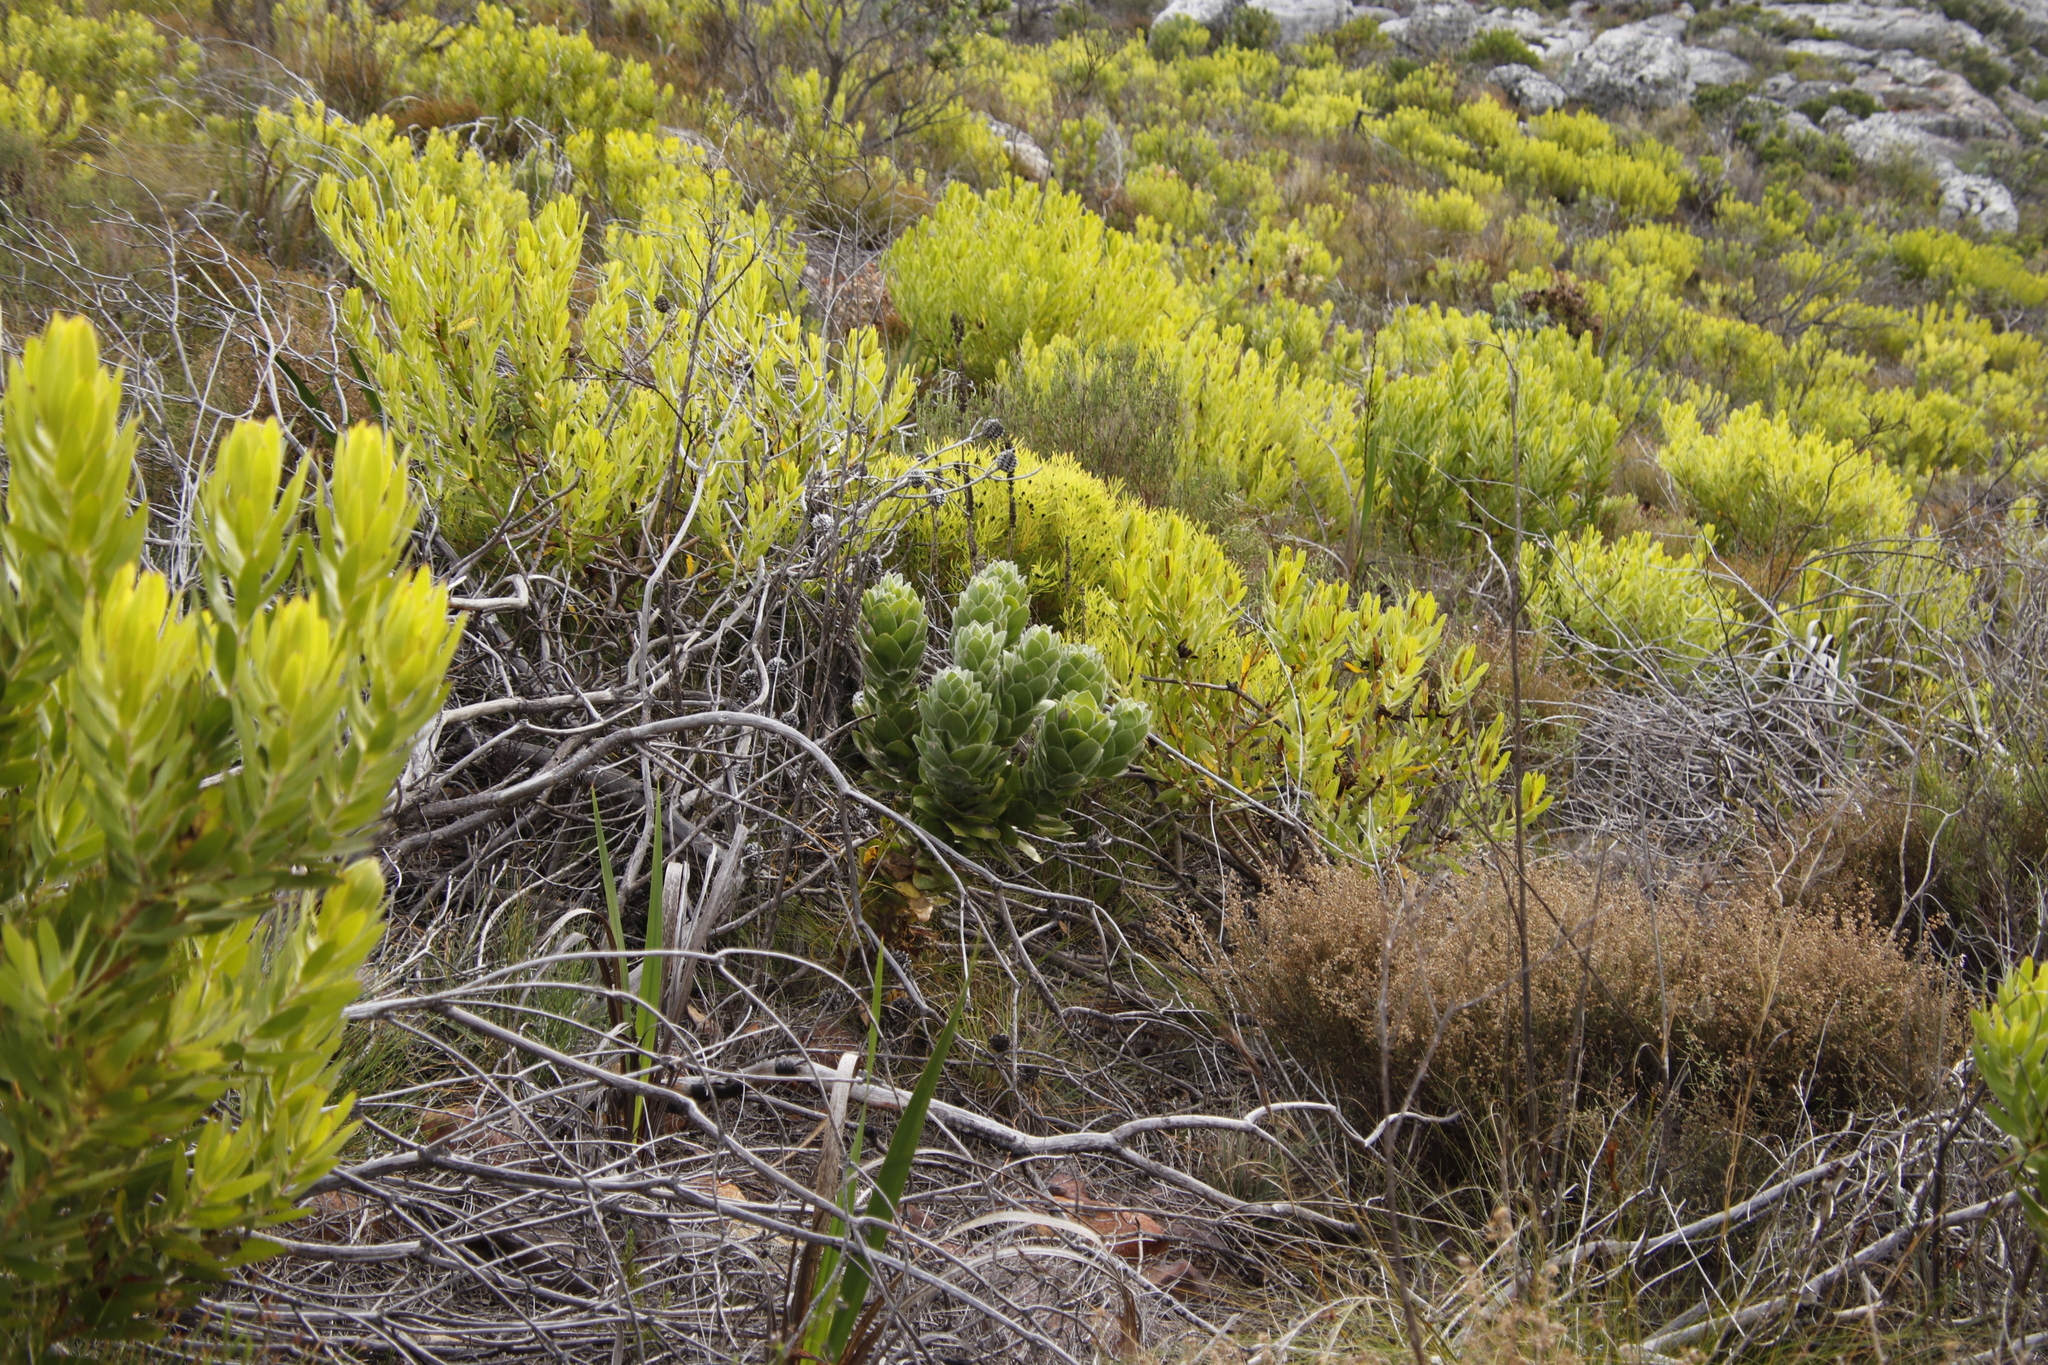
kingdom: Plantae
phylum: Tracheophyta
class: Magnoliopsida
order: Proteales
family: Proteaceae
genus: Leucospermum
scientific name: Leucospermum conocarpodendron
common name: Tree pincushion
